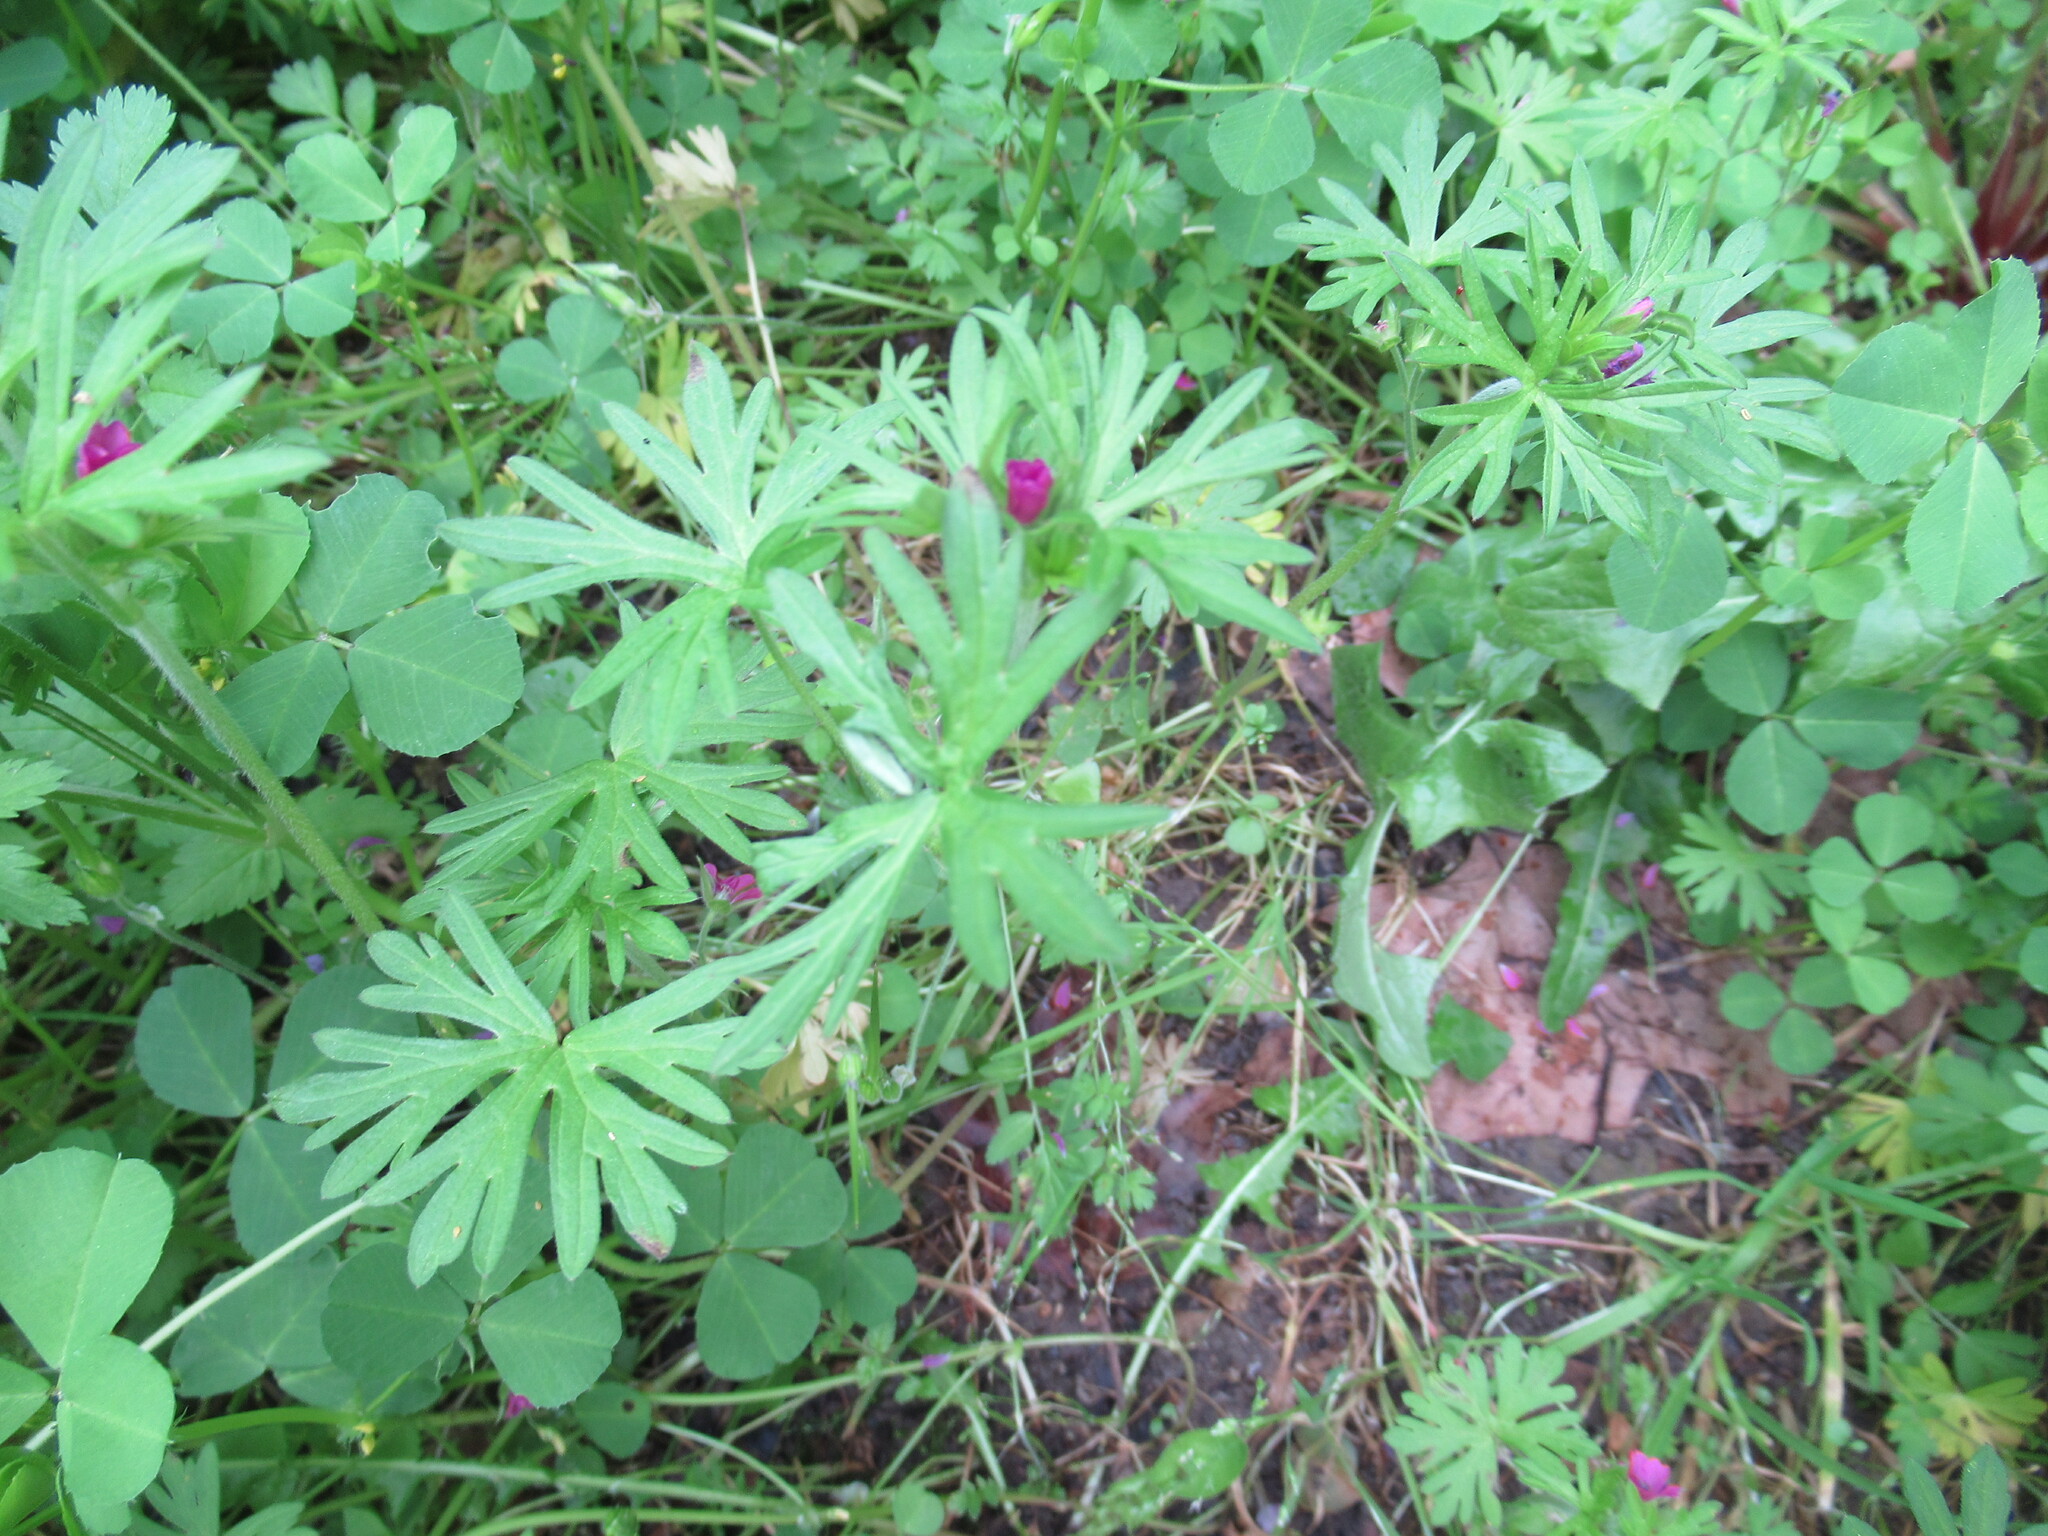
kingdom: Plantae
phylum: Tracheophyta
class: Magnoliopsida
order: Geraniales
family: Geraniaceae
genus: Geranium
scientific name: Geranium dissectum
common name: Cut-leaved crane's-bill
